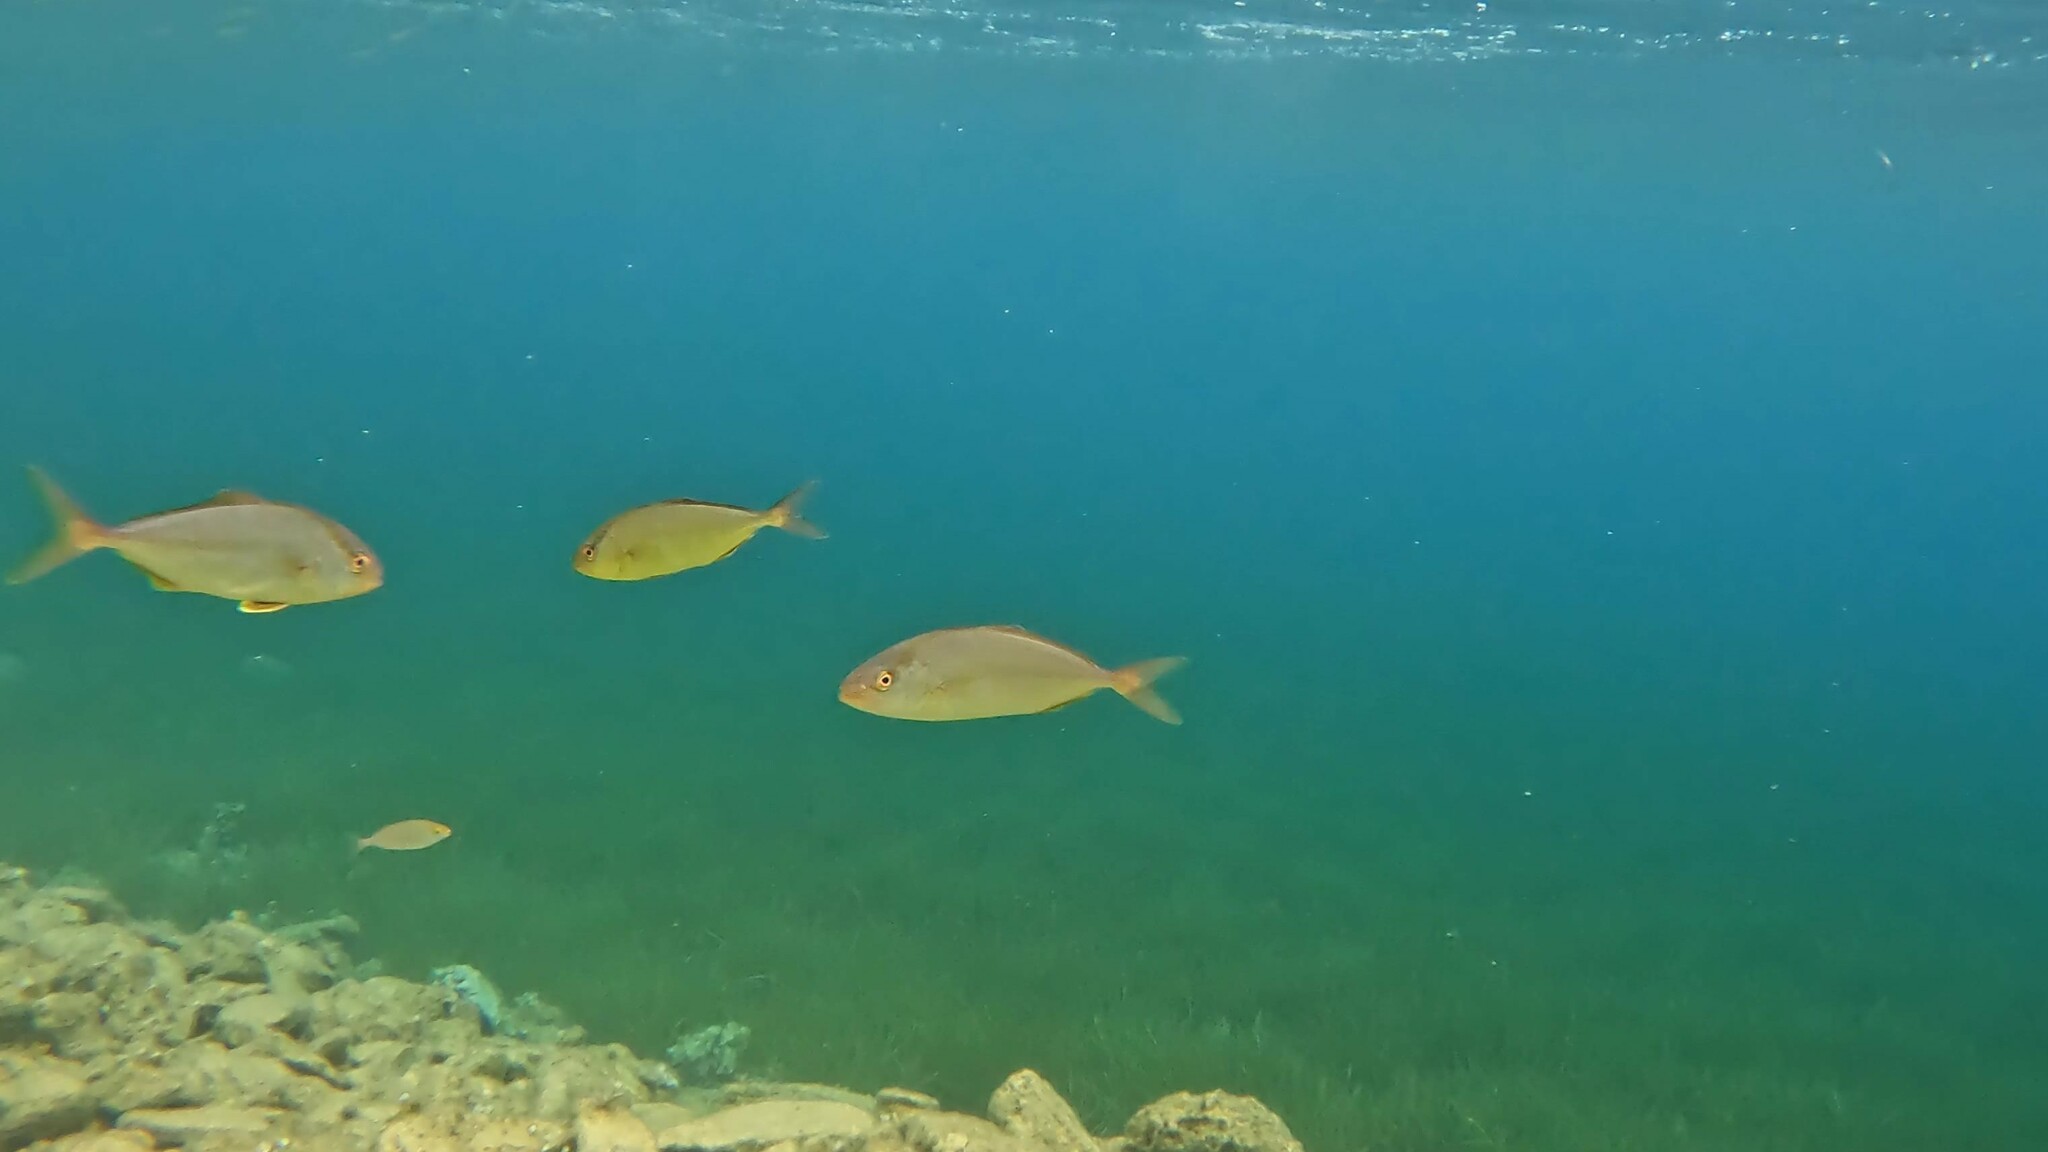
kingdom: Animalia
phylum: Chordata
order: Perciformes
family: Carangidae
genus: Seriola
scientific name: Seriola dumerili
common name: Greater amberjack
